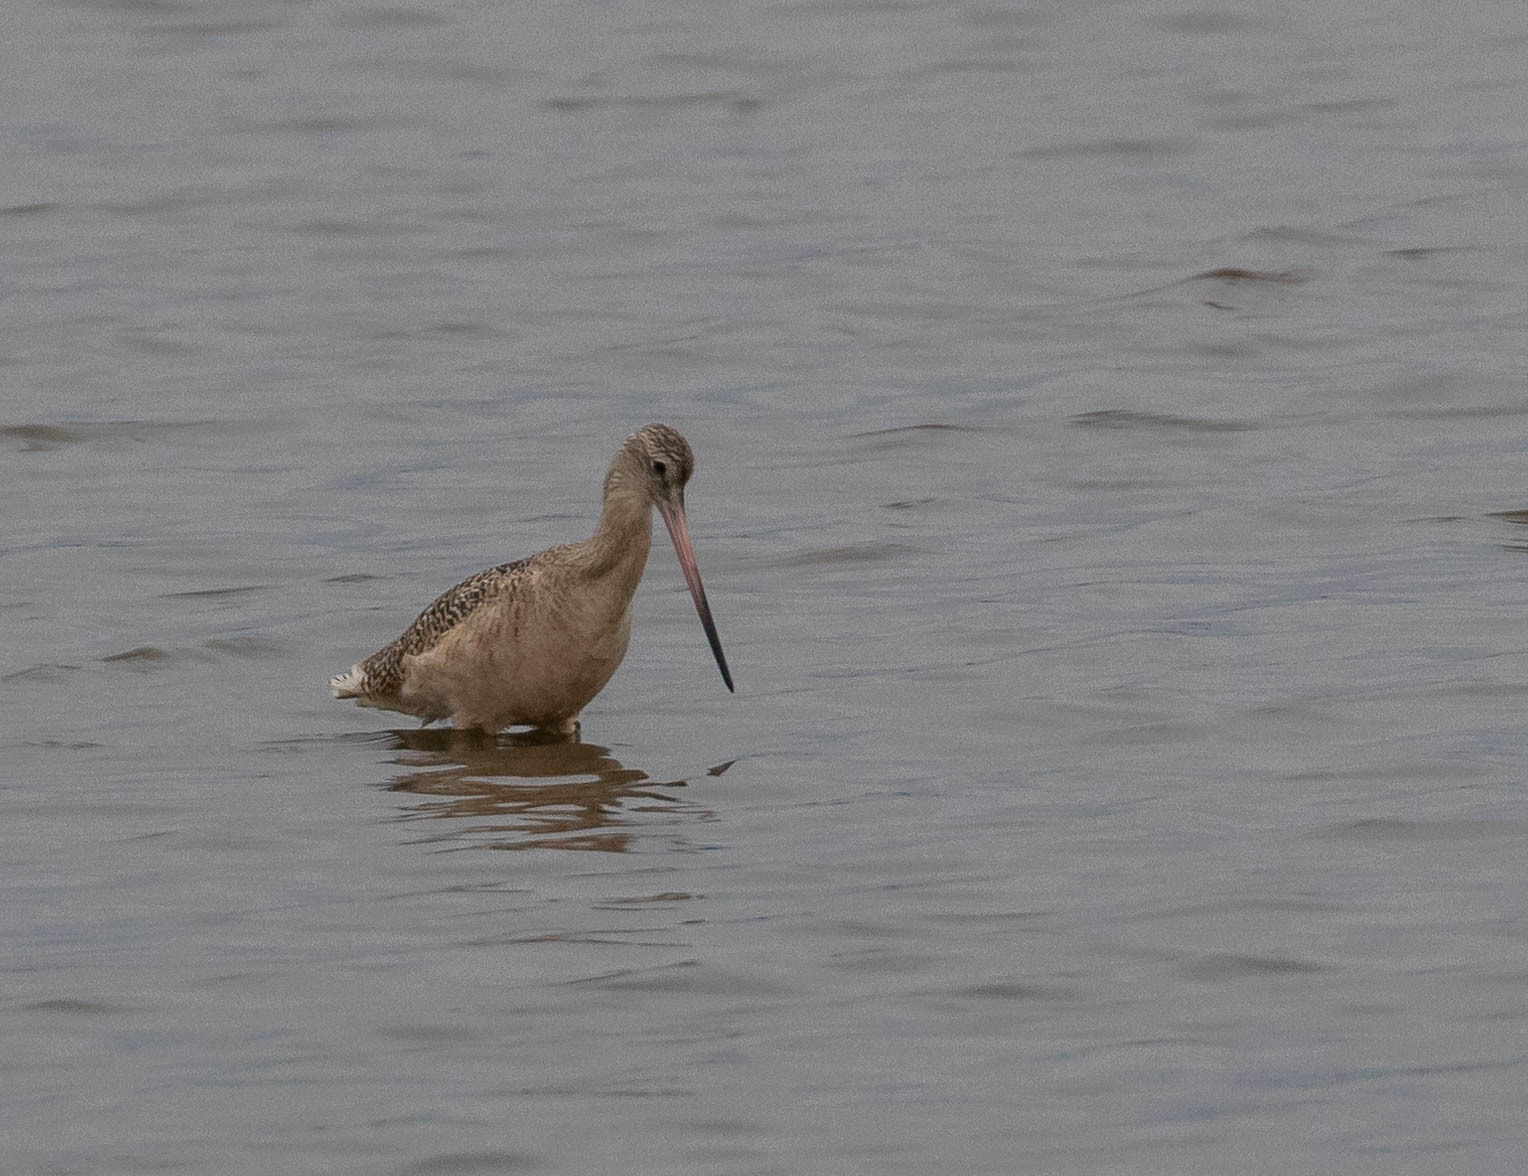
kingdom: Animalia
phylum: Chordata
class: Aves
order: Charadriiformes
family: Scolopacidae
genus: Limosa
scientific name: Limosa fedoa
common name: Marbled godwit
